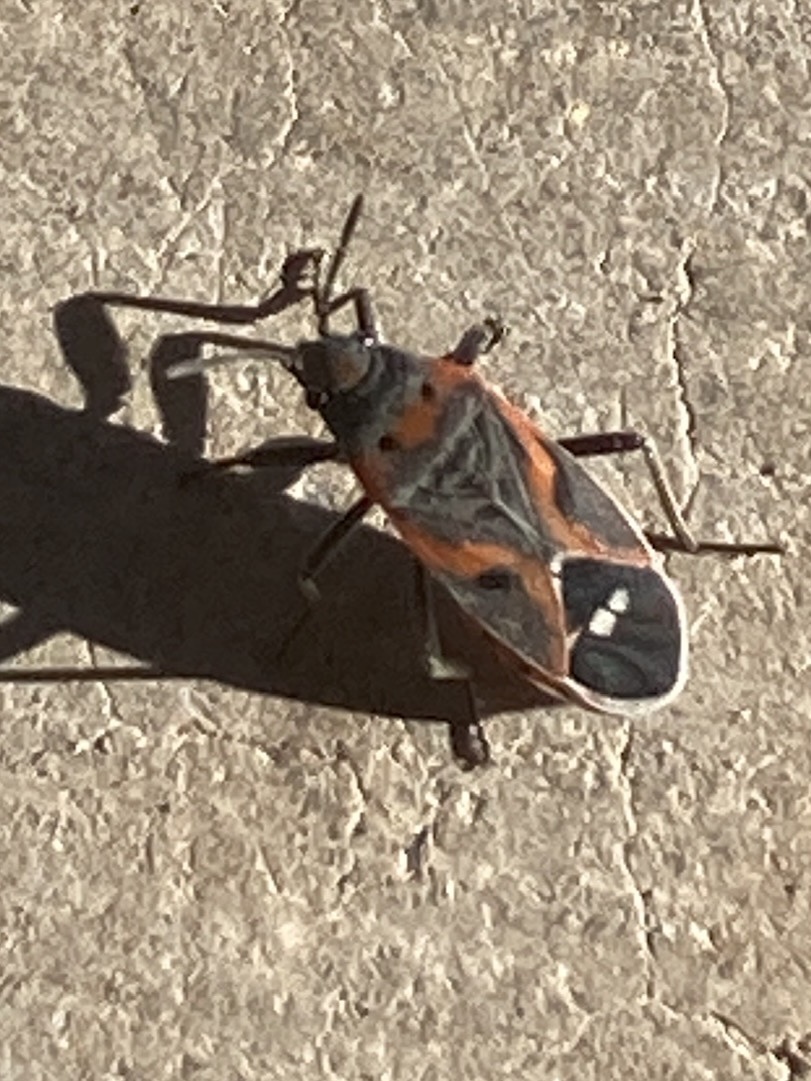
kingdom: Animalia
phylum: Arthropoda
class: Insecta
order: Hemiptera
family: Lygaeidae
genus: Lygaeus
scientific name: Lygaeus kalmii
